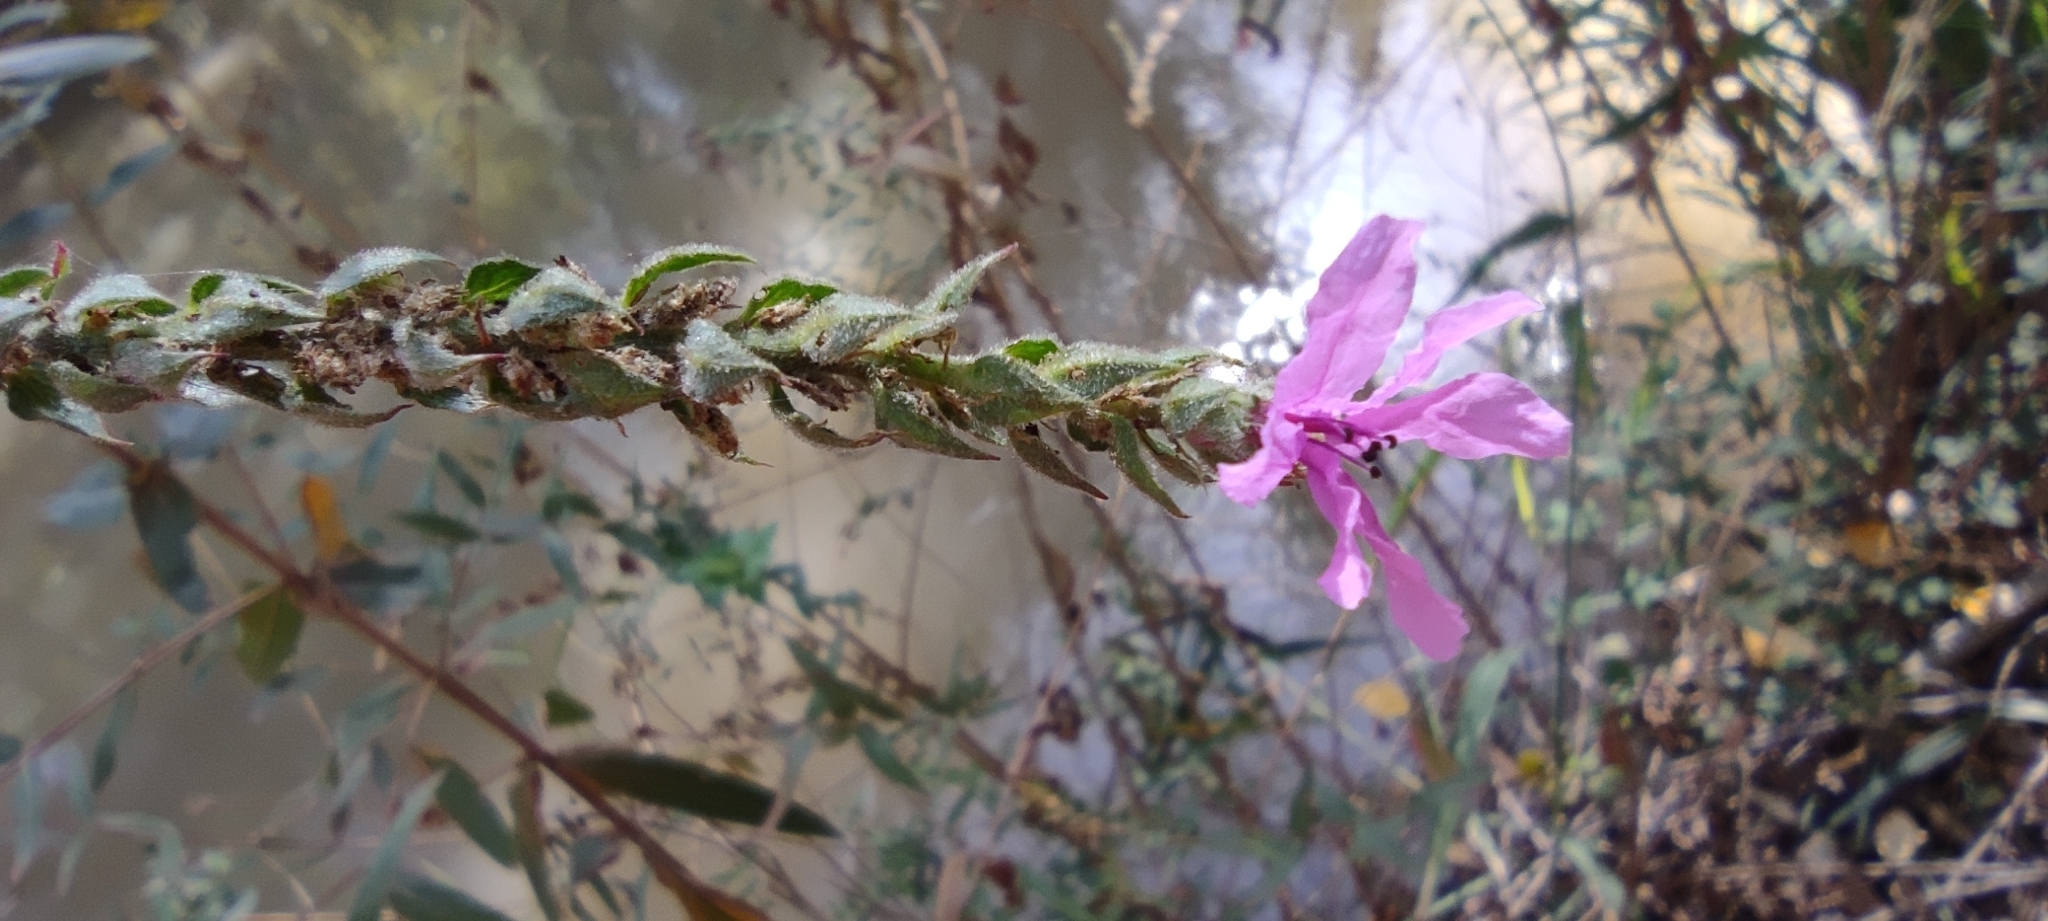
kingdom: Plantae
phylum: Tracheophyta
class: Magnoliopsida
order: Myrtales
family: Lythraceae
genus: Lythrum
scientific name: Lythrum salicaria
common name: Purple loosestrife
